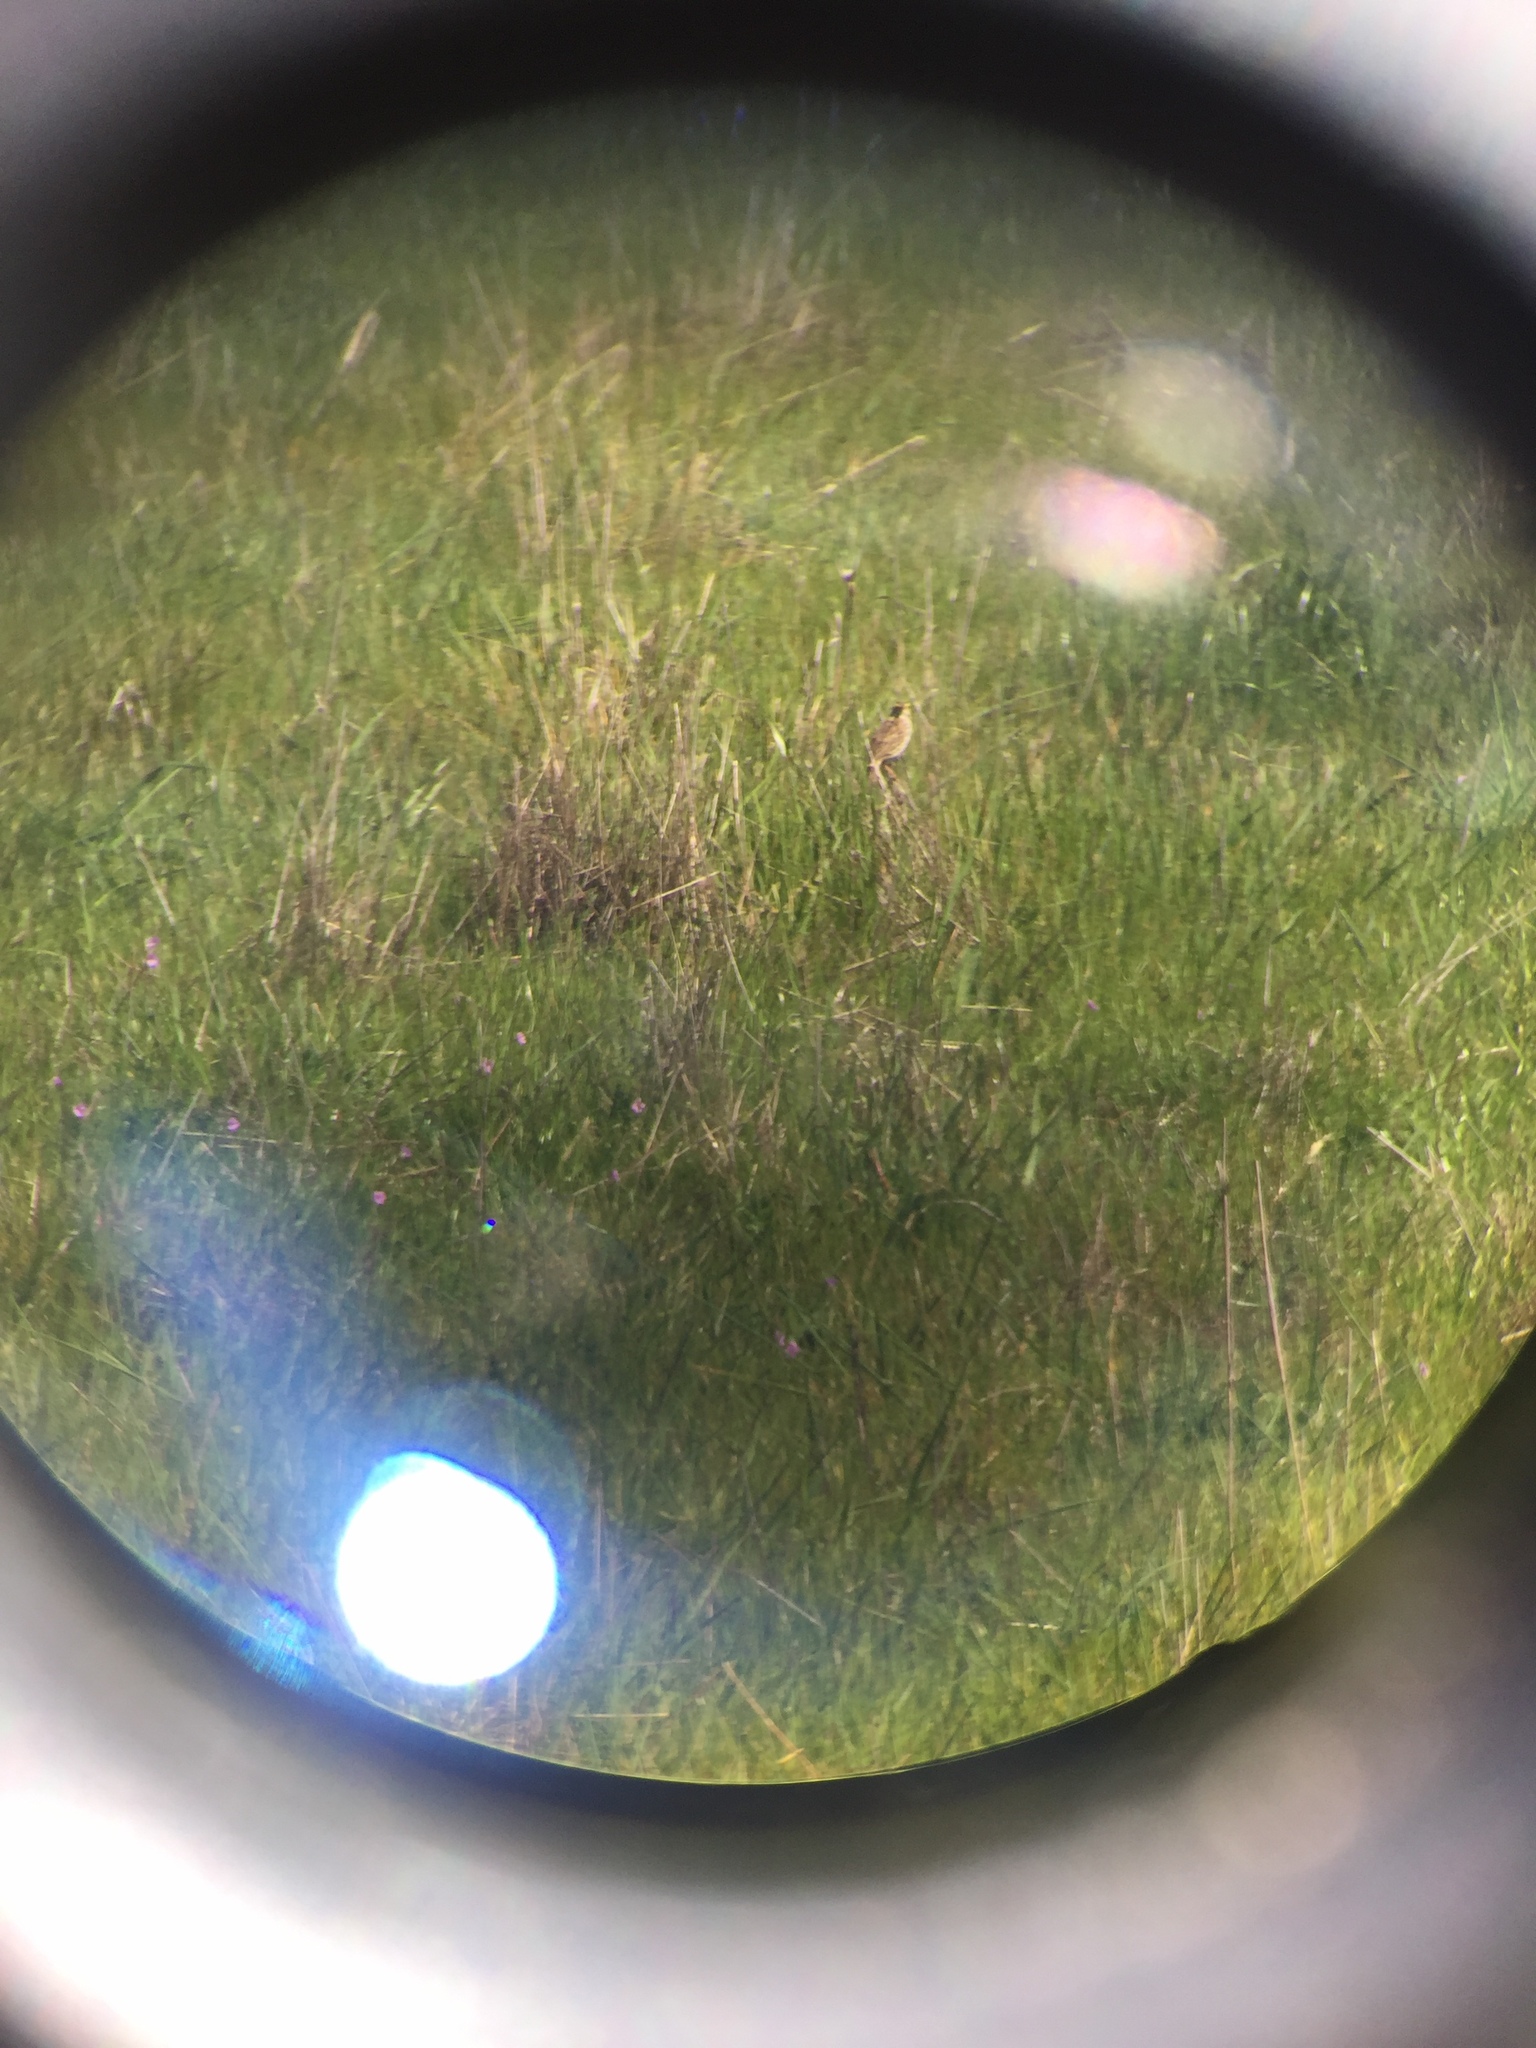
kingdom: Animalia
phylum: Chordata
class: Aves
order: Passeriformes
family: Passerellidae
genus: Passerculus
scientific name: Passerculus sandwichensis
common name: Savannah sparrow
